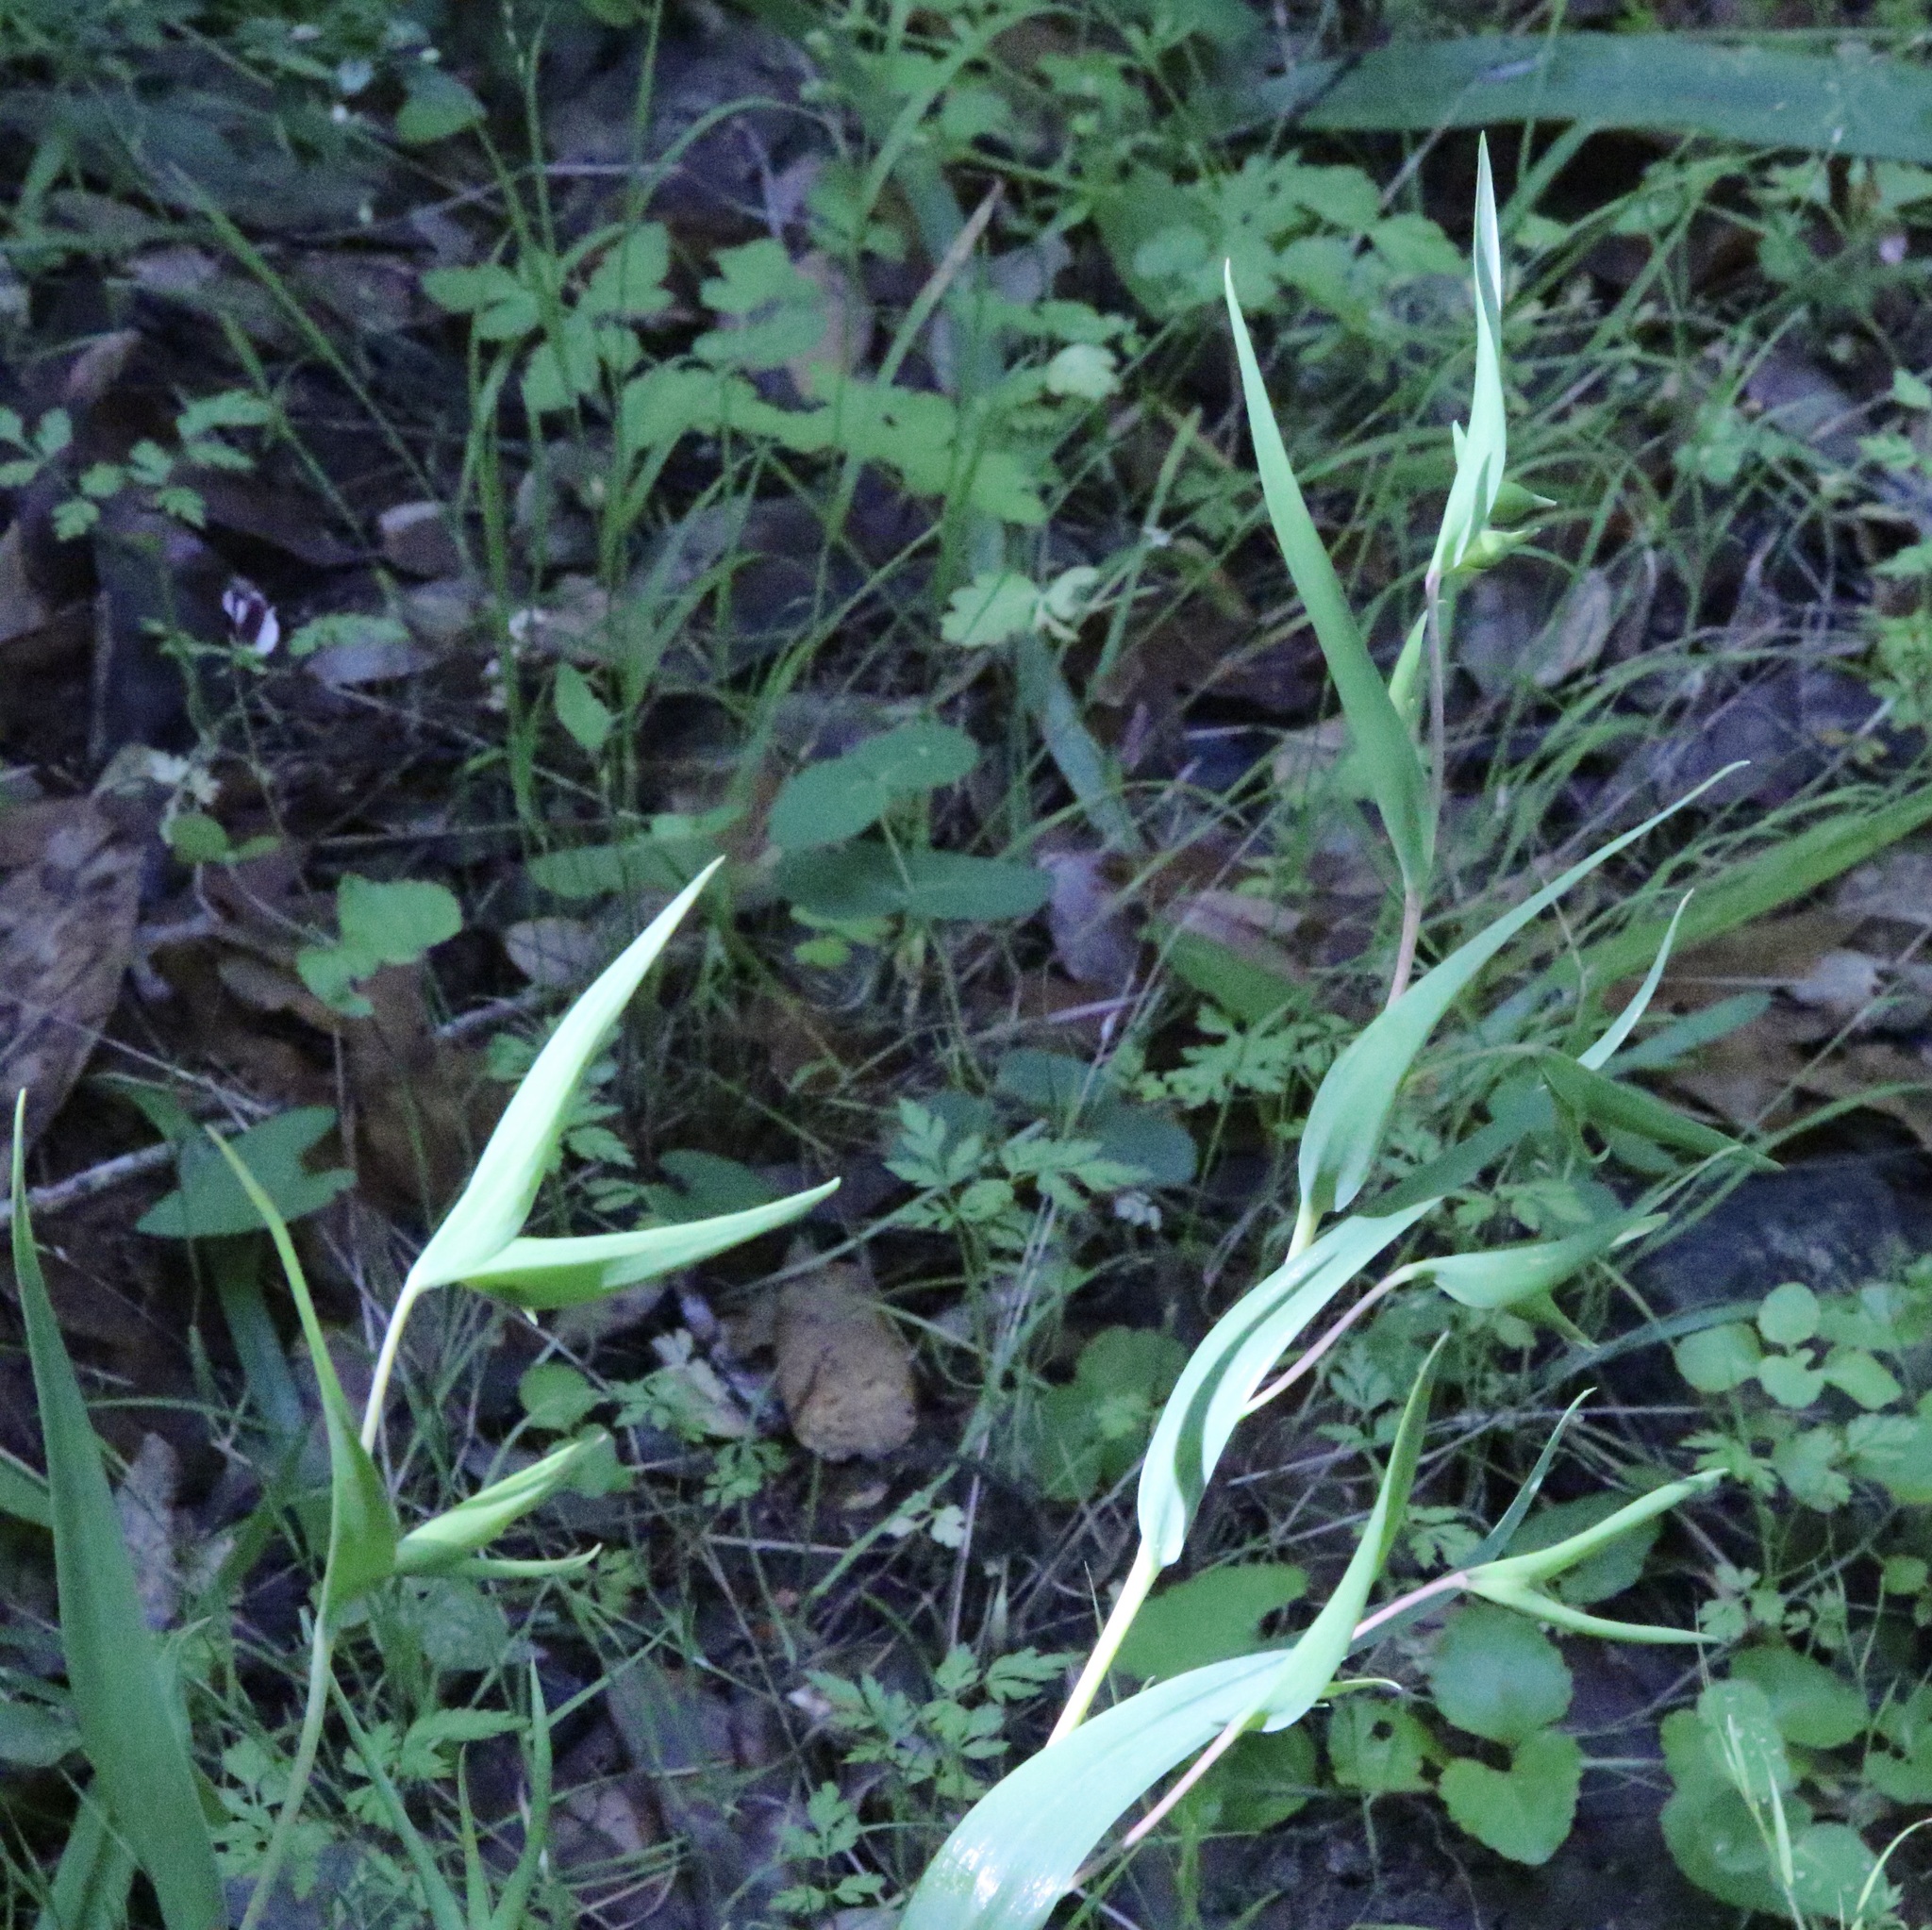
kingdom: Plantae
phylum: Tracheophyta
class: Liliopsida
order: Liliales
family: Liliaceae
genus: Calochortus
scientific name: Calochortus albus
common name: Fairy-lantern
